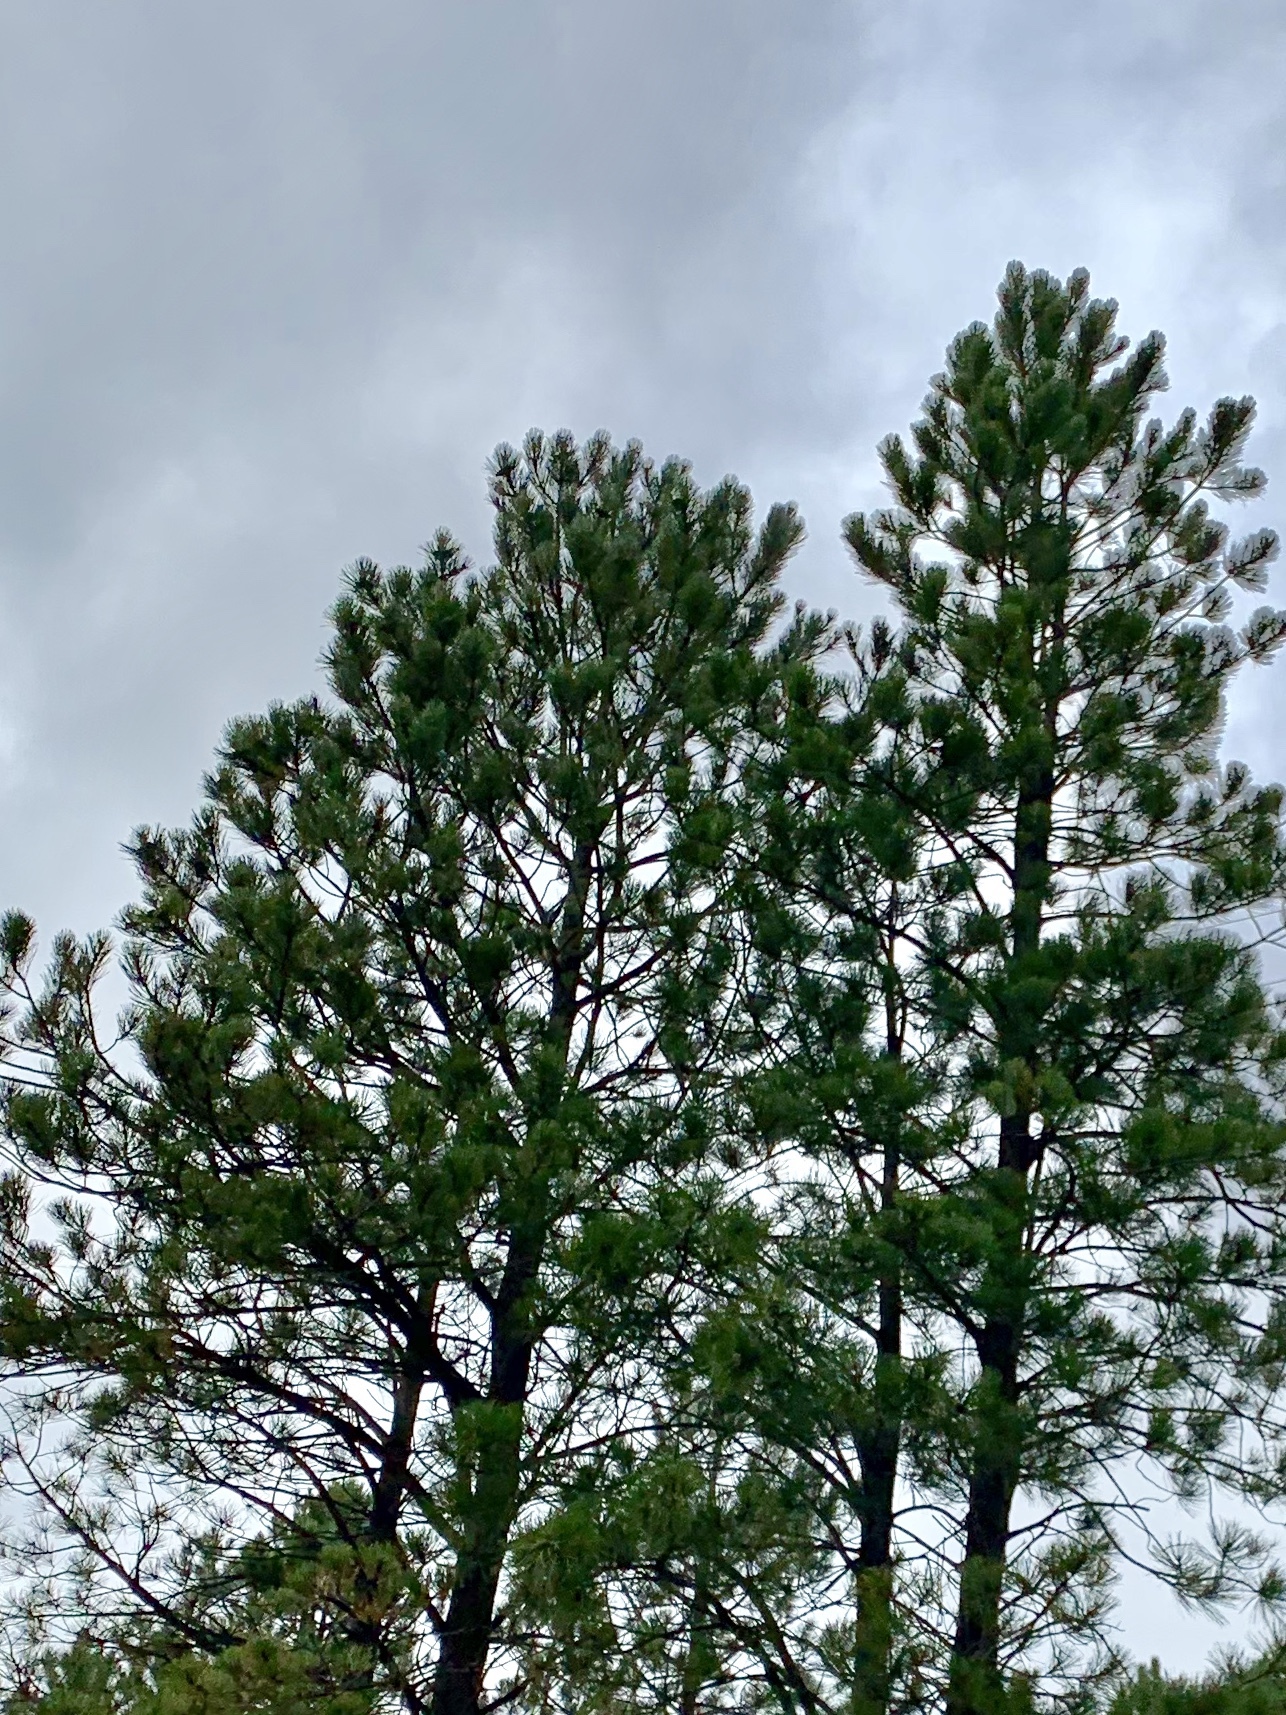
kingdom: Plantae
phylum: Tracheophyta
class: Pinopsida
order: Pinales
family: Pinaceae
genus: Pinus
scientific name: Pinus ponderosa
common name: Western yellow-pine
